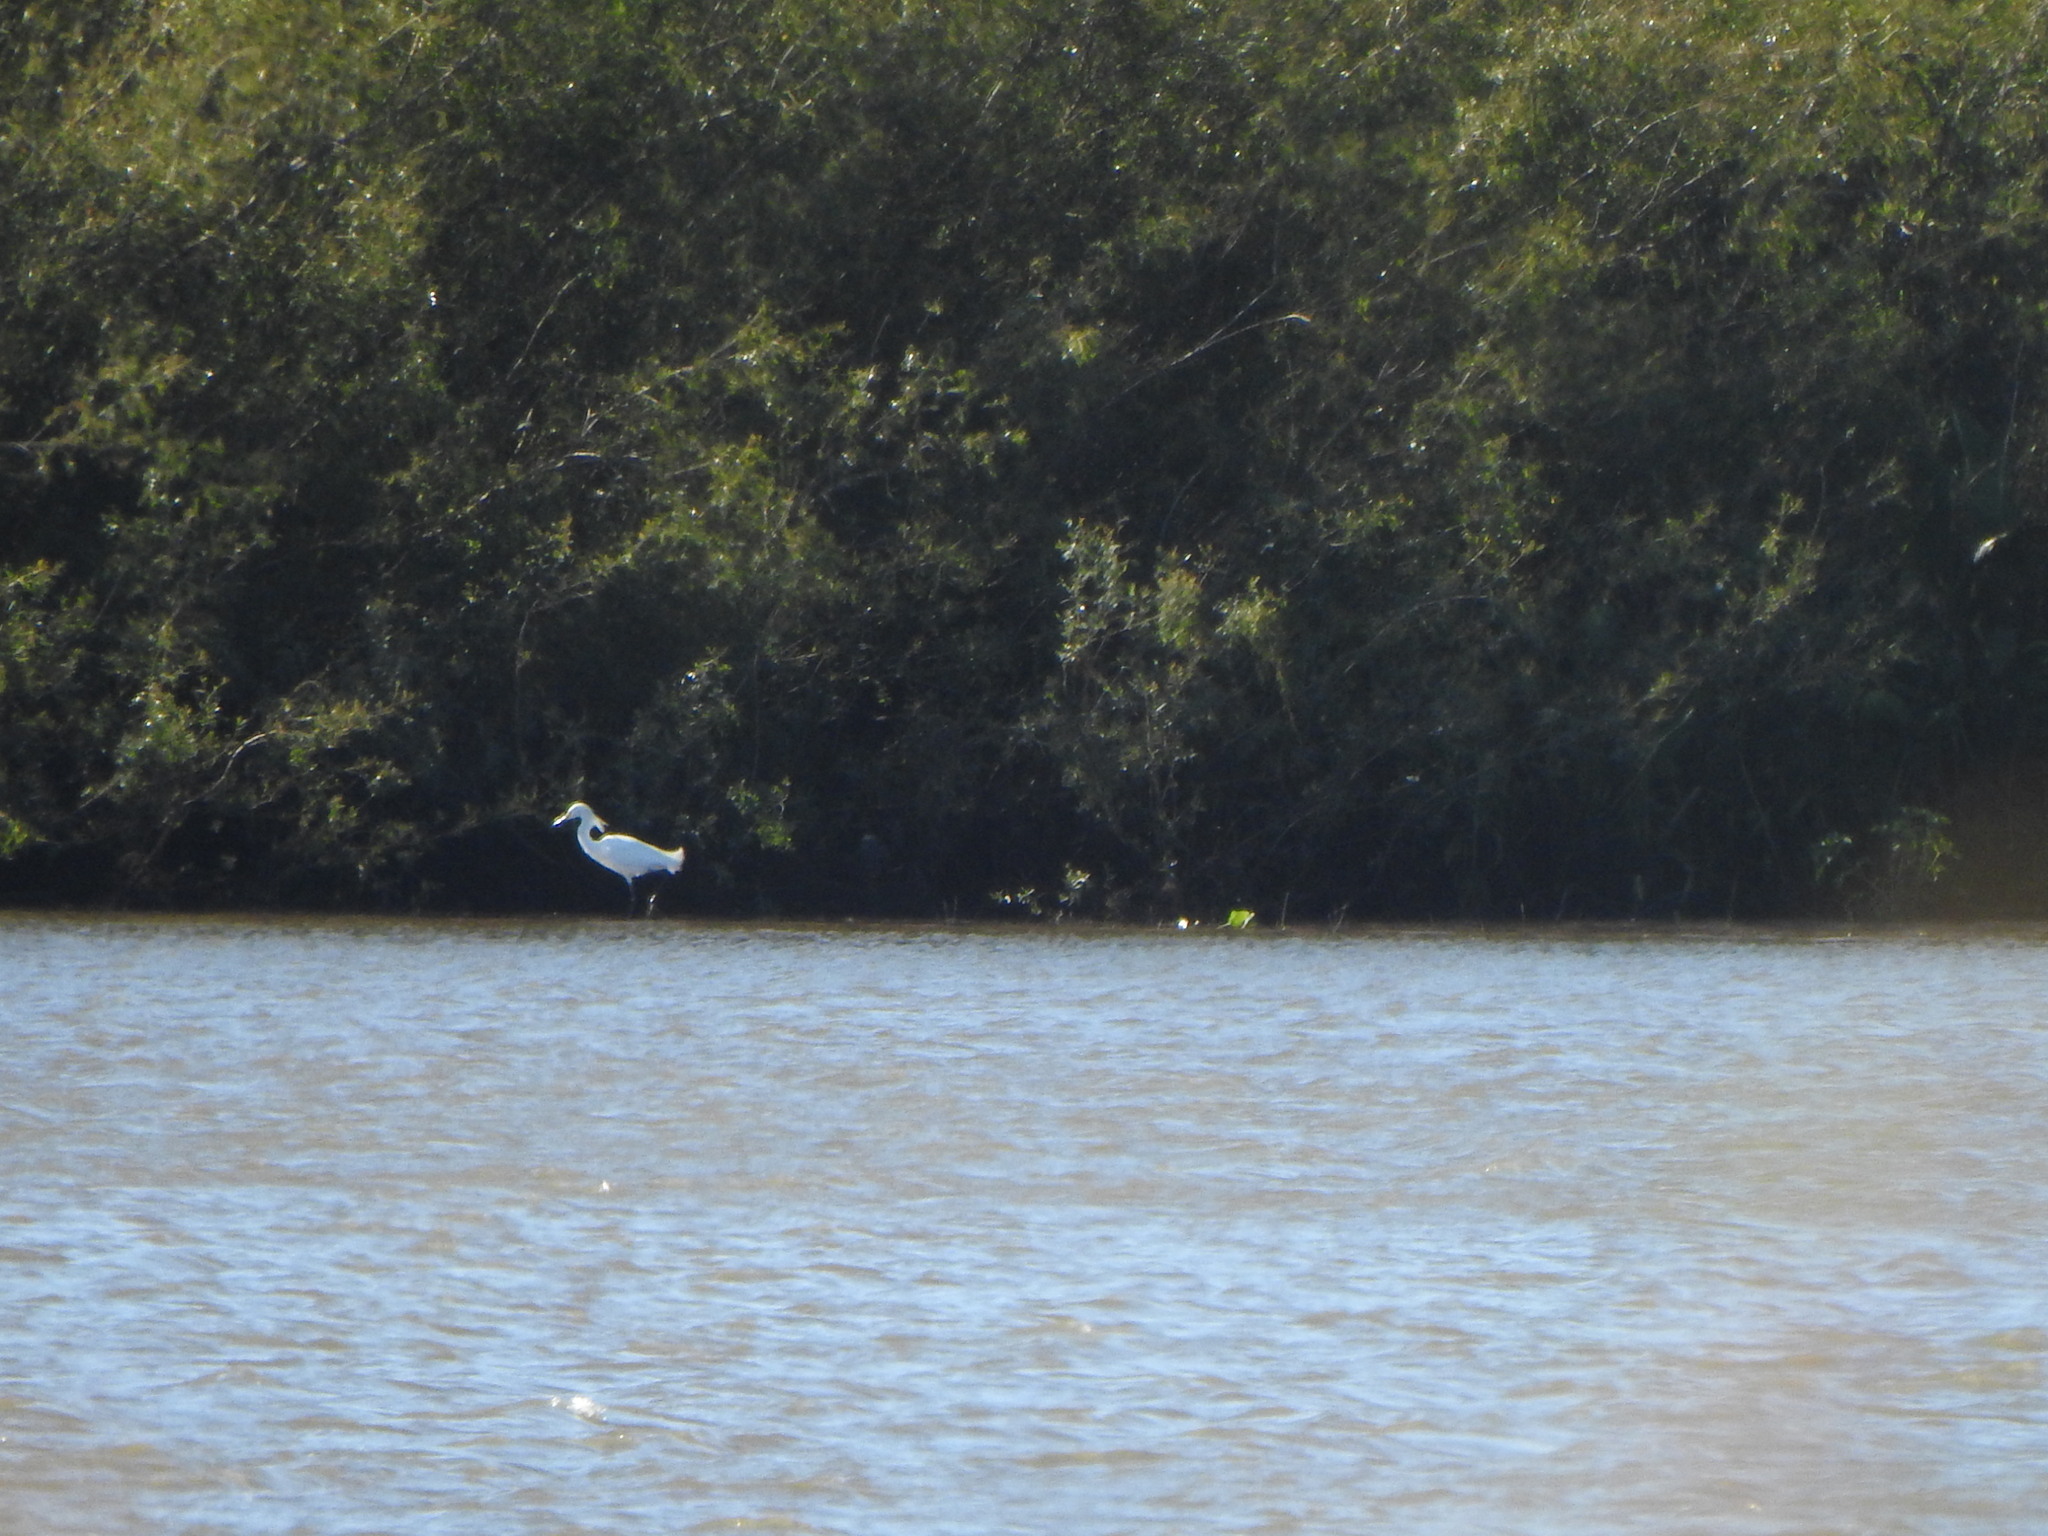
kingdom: Animalia
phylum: Chordata
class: Aves
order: Pelecaniformes
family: Ardeidae
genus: Egretta
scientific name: Egretta thula
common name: Snowy egret
